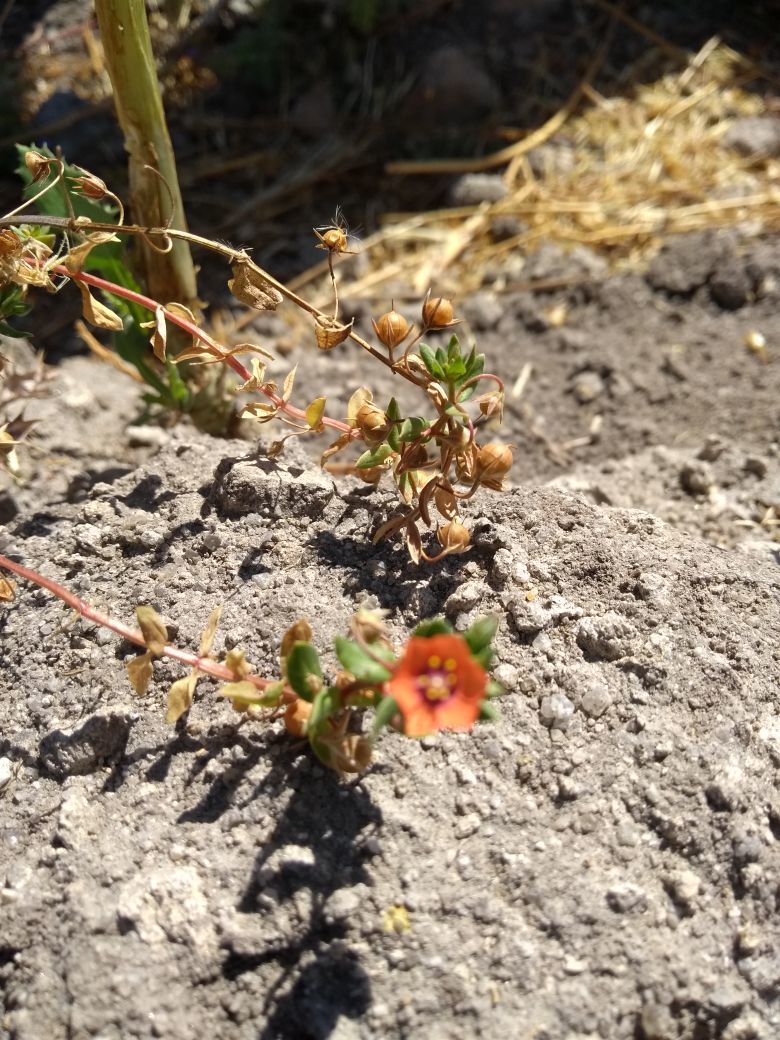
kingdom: Plantae
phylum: Tracheophyta
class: Magnoliopsida
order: Ericales
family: Primulaceae
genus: Lysimachia
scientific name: Lysimachia arvensis
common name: Scarlet pimpernel
